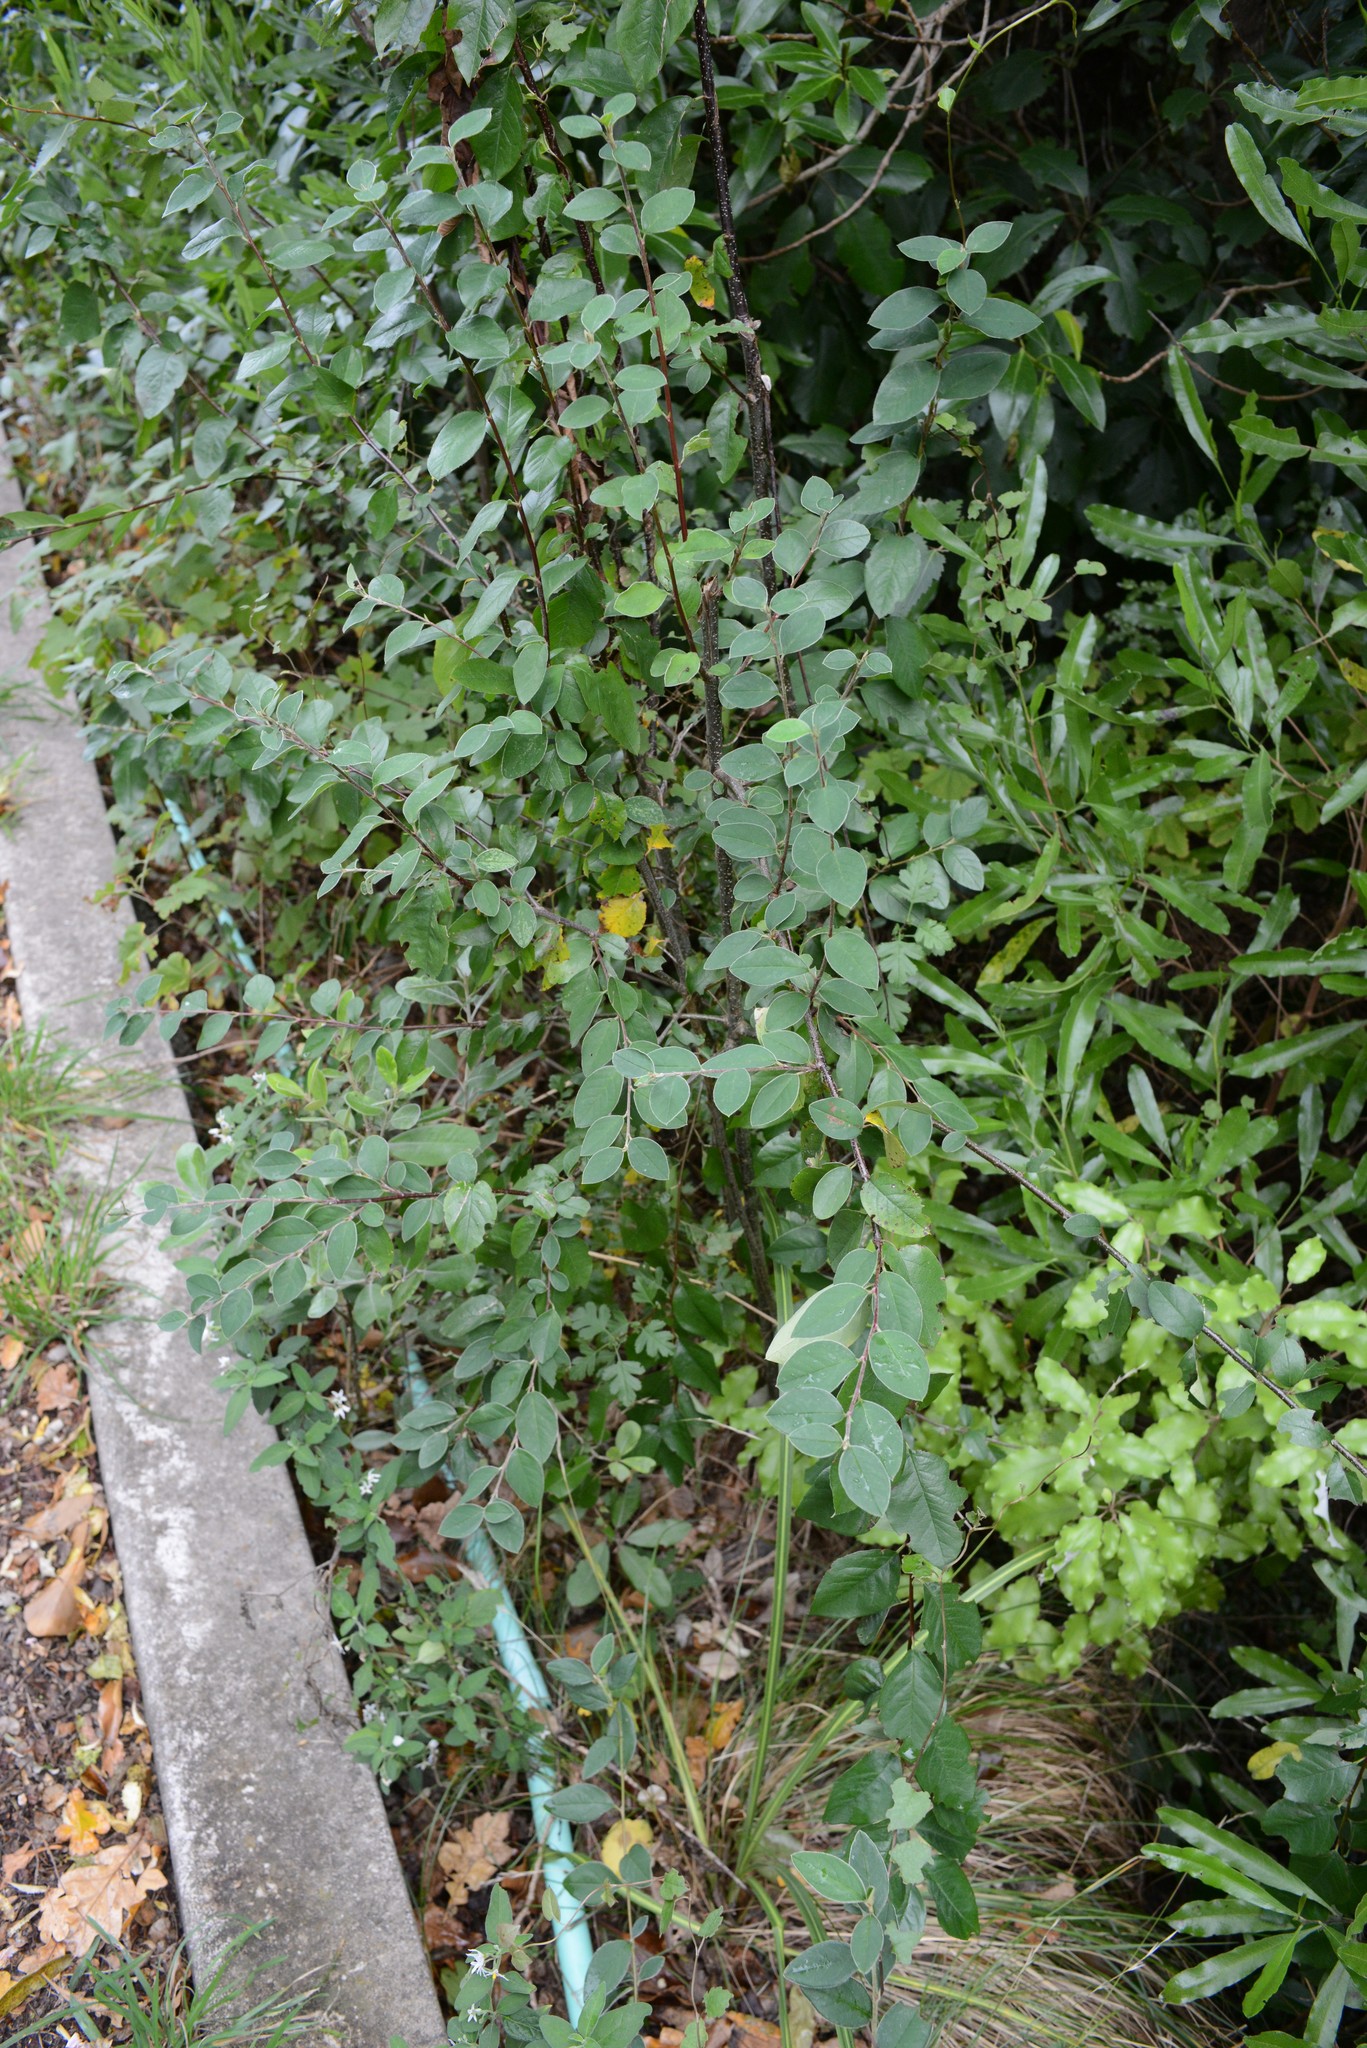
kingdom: Plantae
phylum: Tracheophyta
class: Magnoliopsida
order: Rosales
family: Rosaceae
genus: Cotoneaster
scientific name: Cotoneaster hebephyllus
